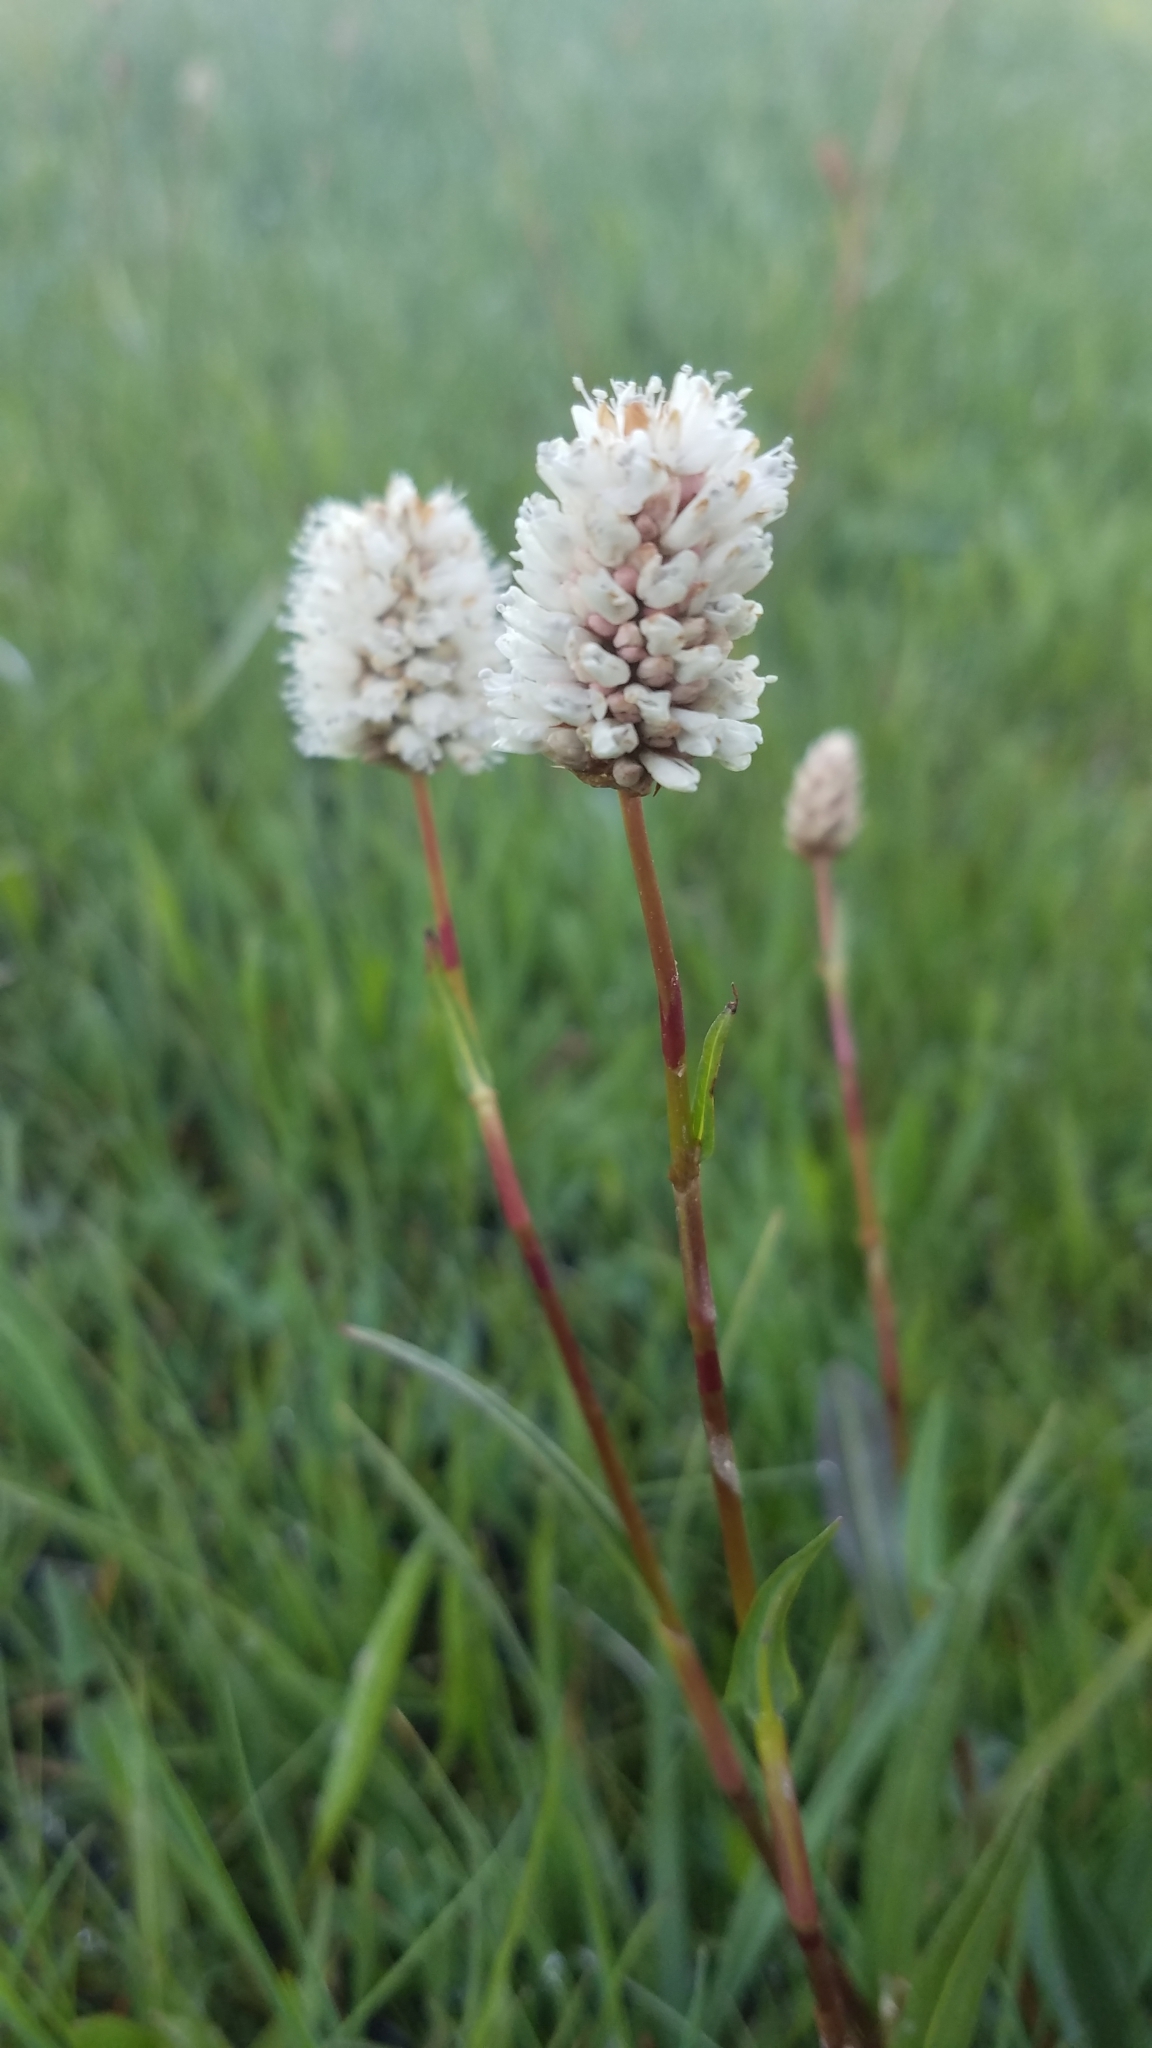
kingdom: Plantae
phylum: Tracheophyta
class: Magnoliopsida
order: Caryophyllales
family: Polygonaceae
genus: Bistorta
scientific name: Bistorta bistortoides
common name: American bistort
